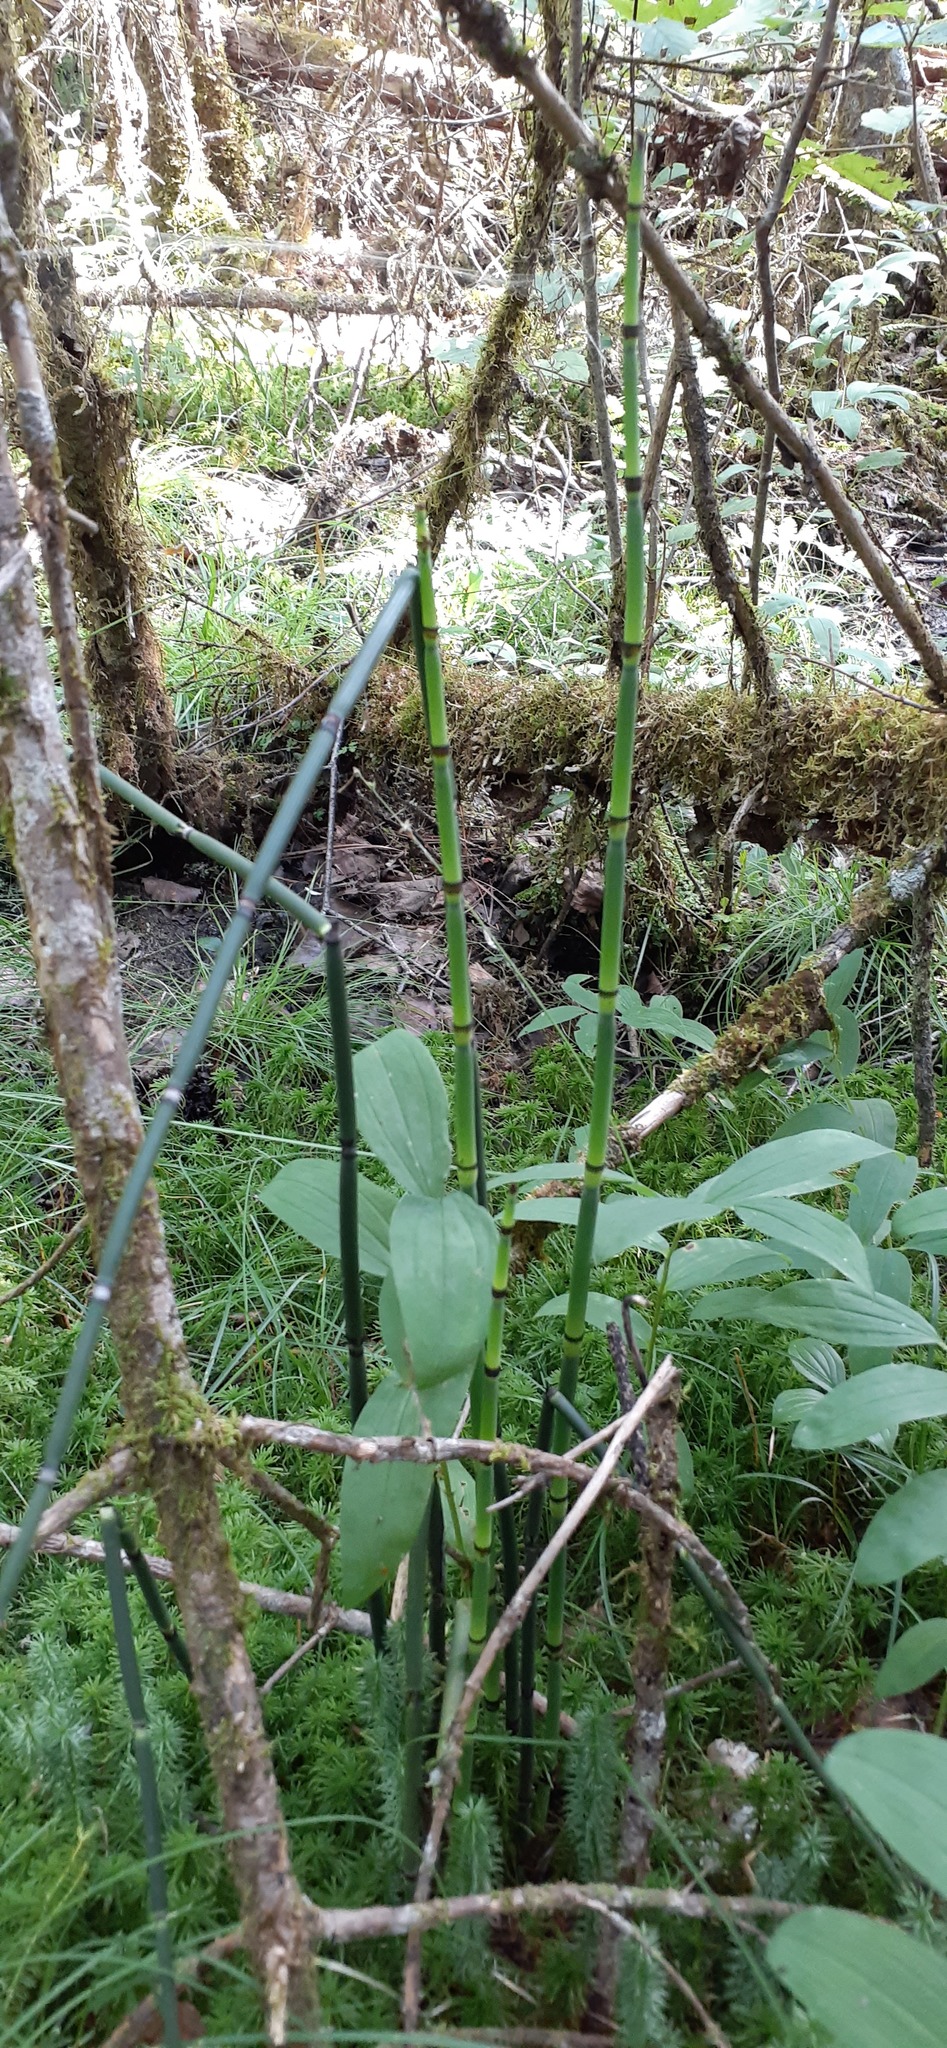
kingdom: Plantae
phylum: Tracheophyta
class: Polypodiopsida
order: Equisetales
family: Equisetaceae
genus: Equisetum
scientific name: Equisetum hyemale
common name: Rough horsetail
